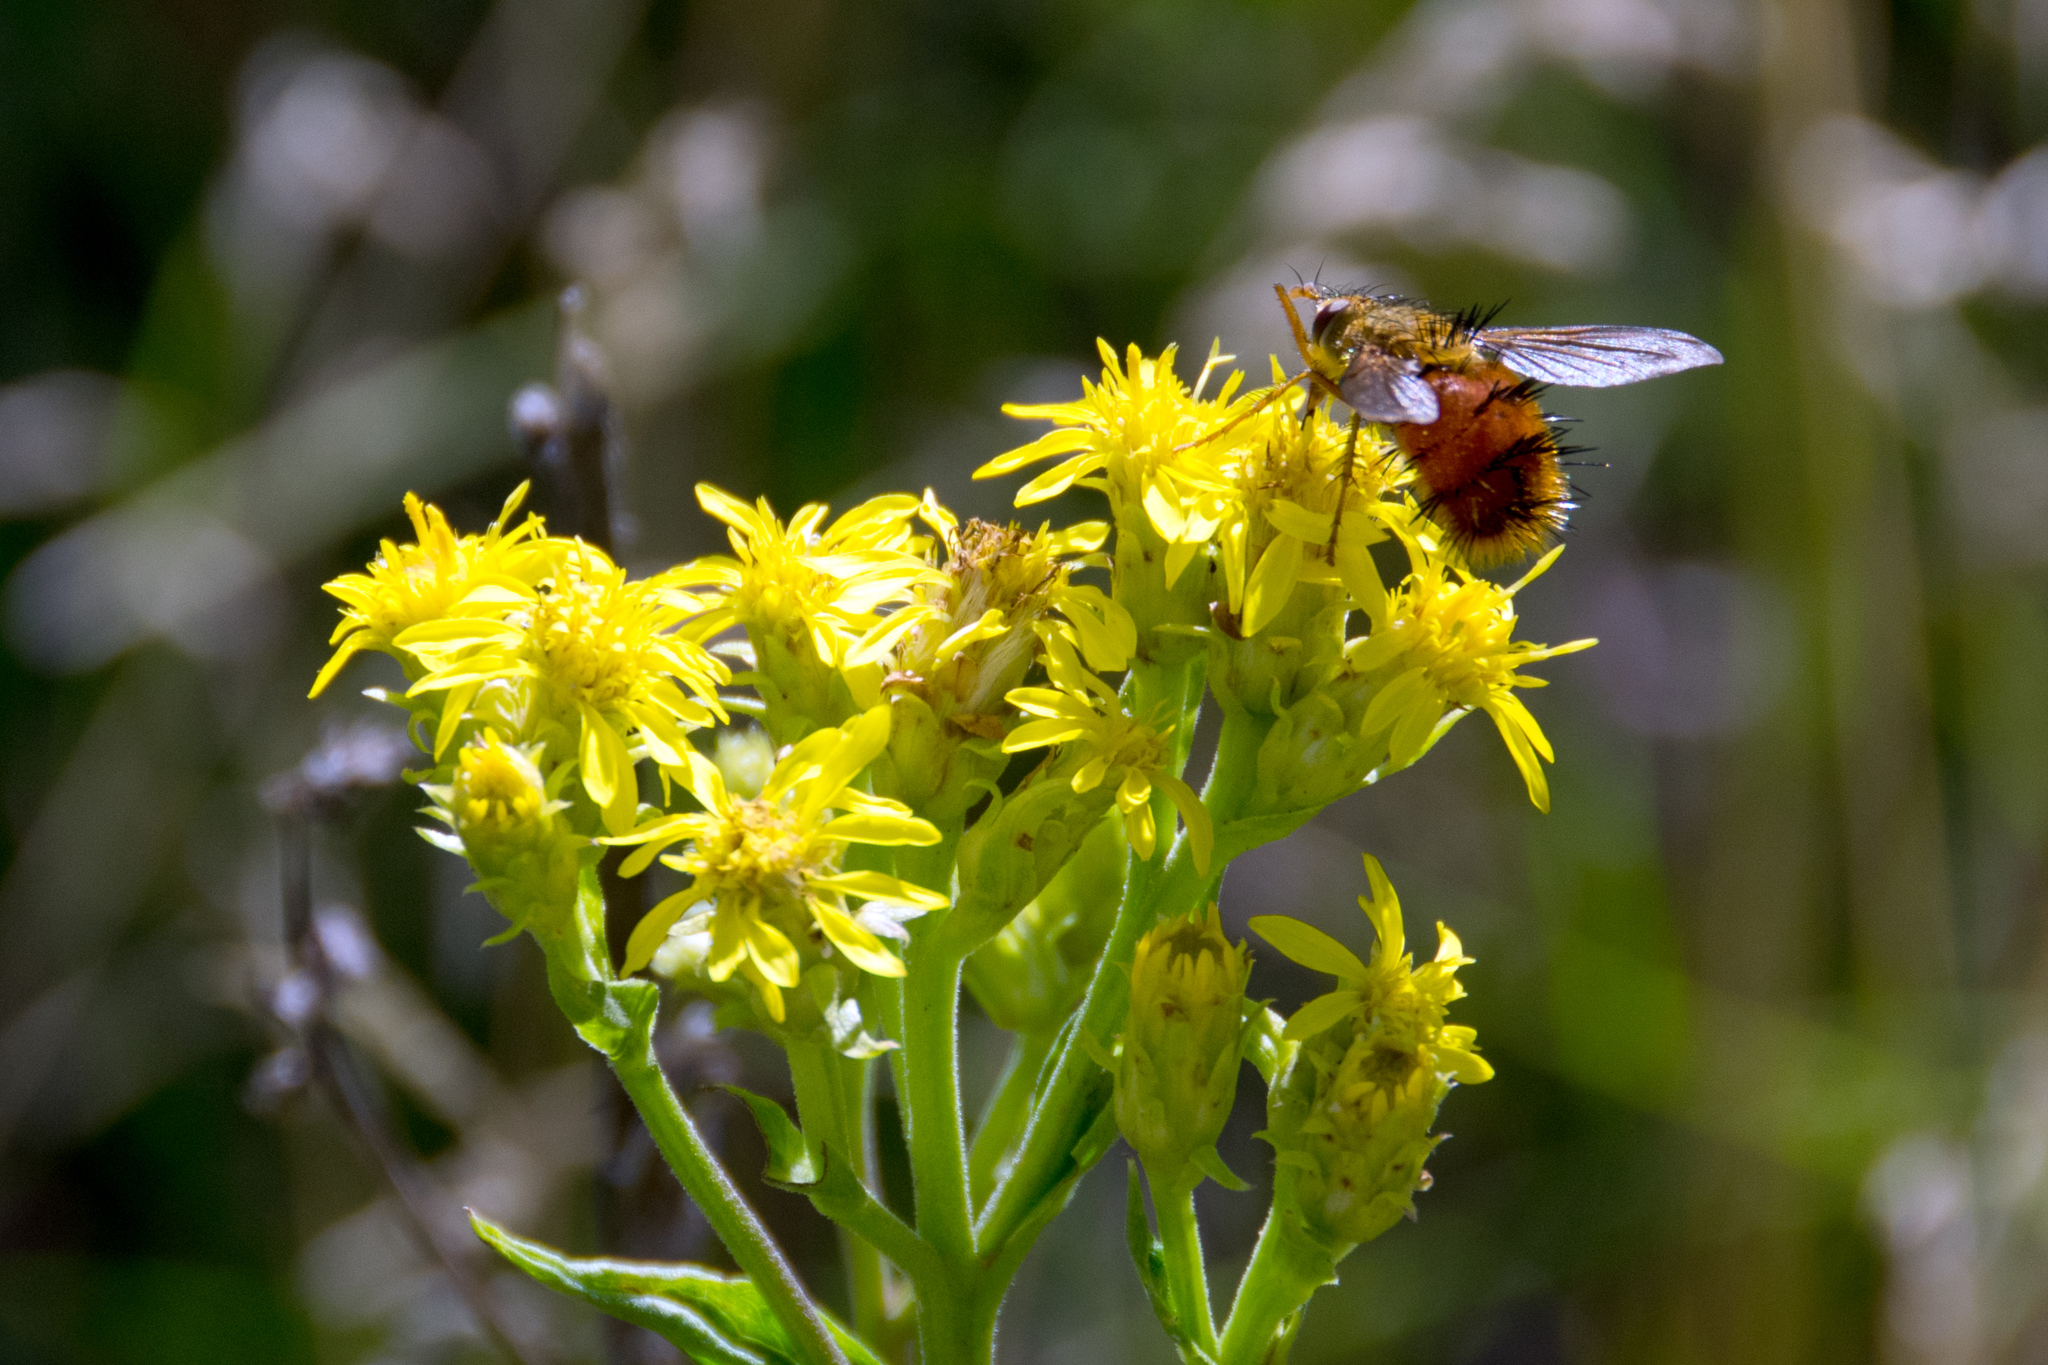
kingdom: Animalia
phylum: Arthropoda
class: Insecta
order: Diptera
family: Tachinidae
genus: Adejeania
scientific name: Adejeania vexatrix
